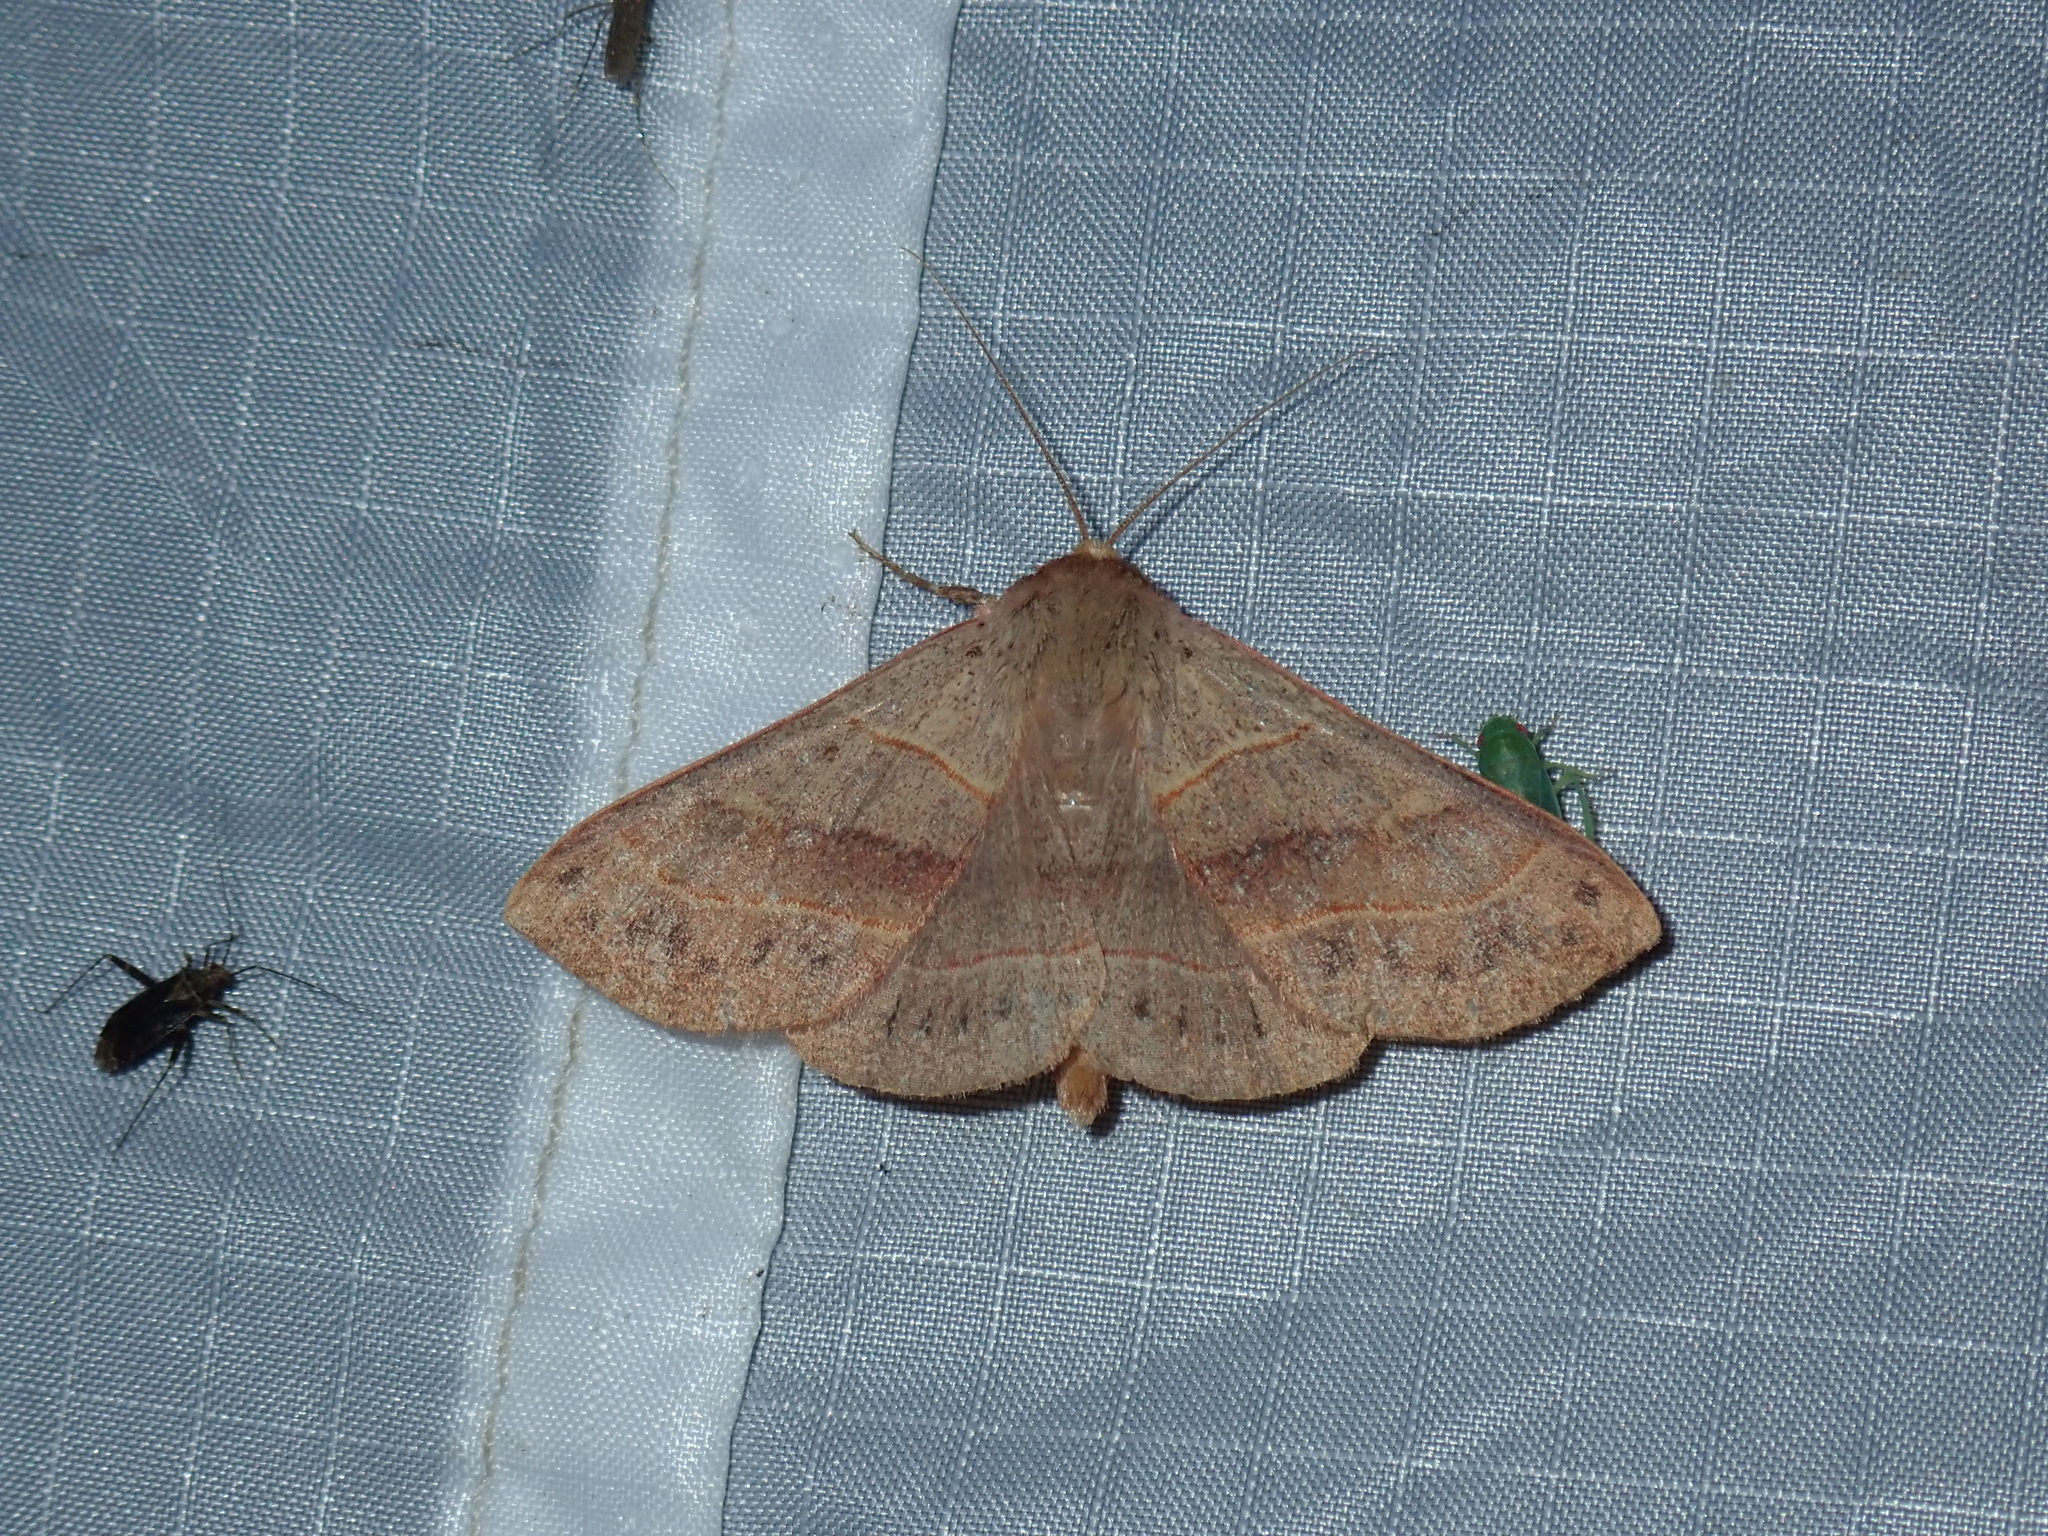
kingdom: Animalia
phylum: Arthropoda
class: Insecta
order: Lepidoptera
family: Erebidae
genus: Panopoda
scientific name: Panopoda rufimargo
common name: Red-lined panopoda moth
